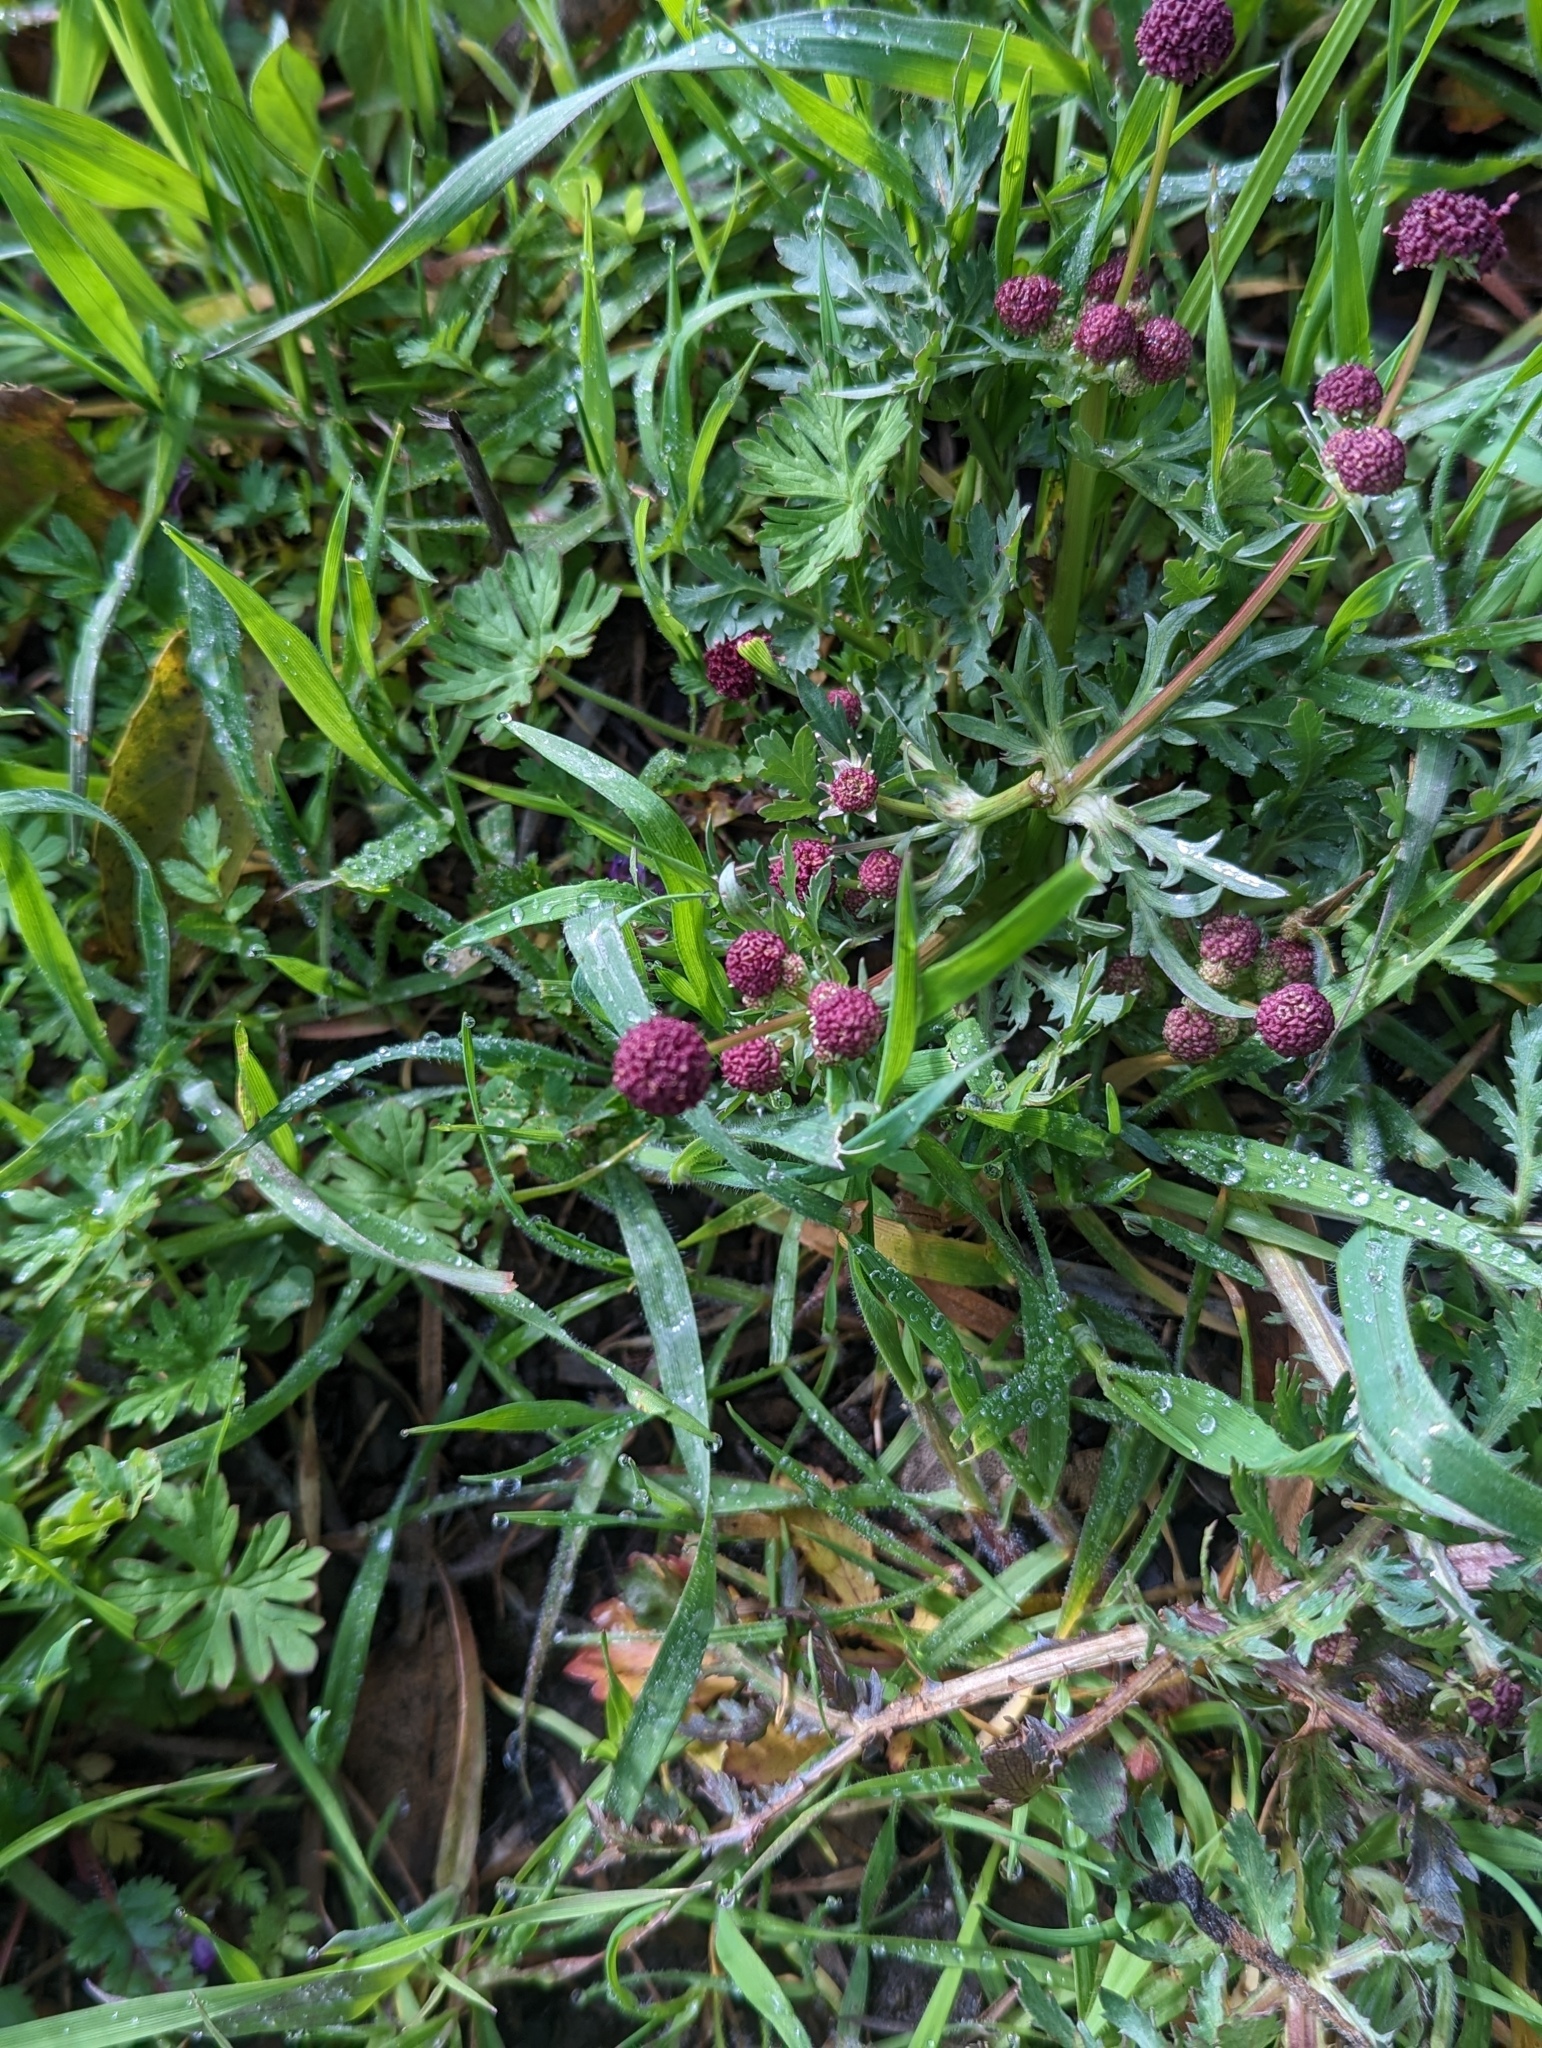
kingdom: Plantae
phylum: Tracheophyta
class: Magnoliopsida
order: Apiales
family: Apiaceae
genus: Sanicula
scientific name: Sanicula bipinnatifida
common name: Shoe-buttons
